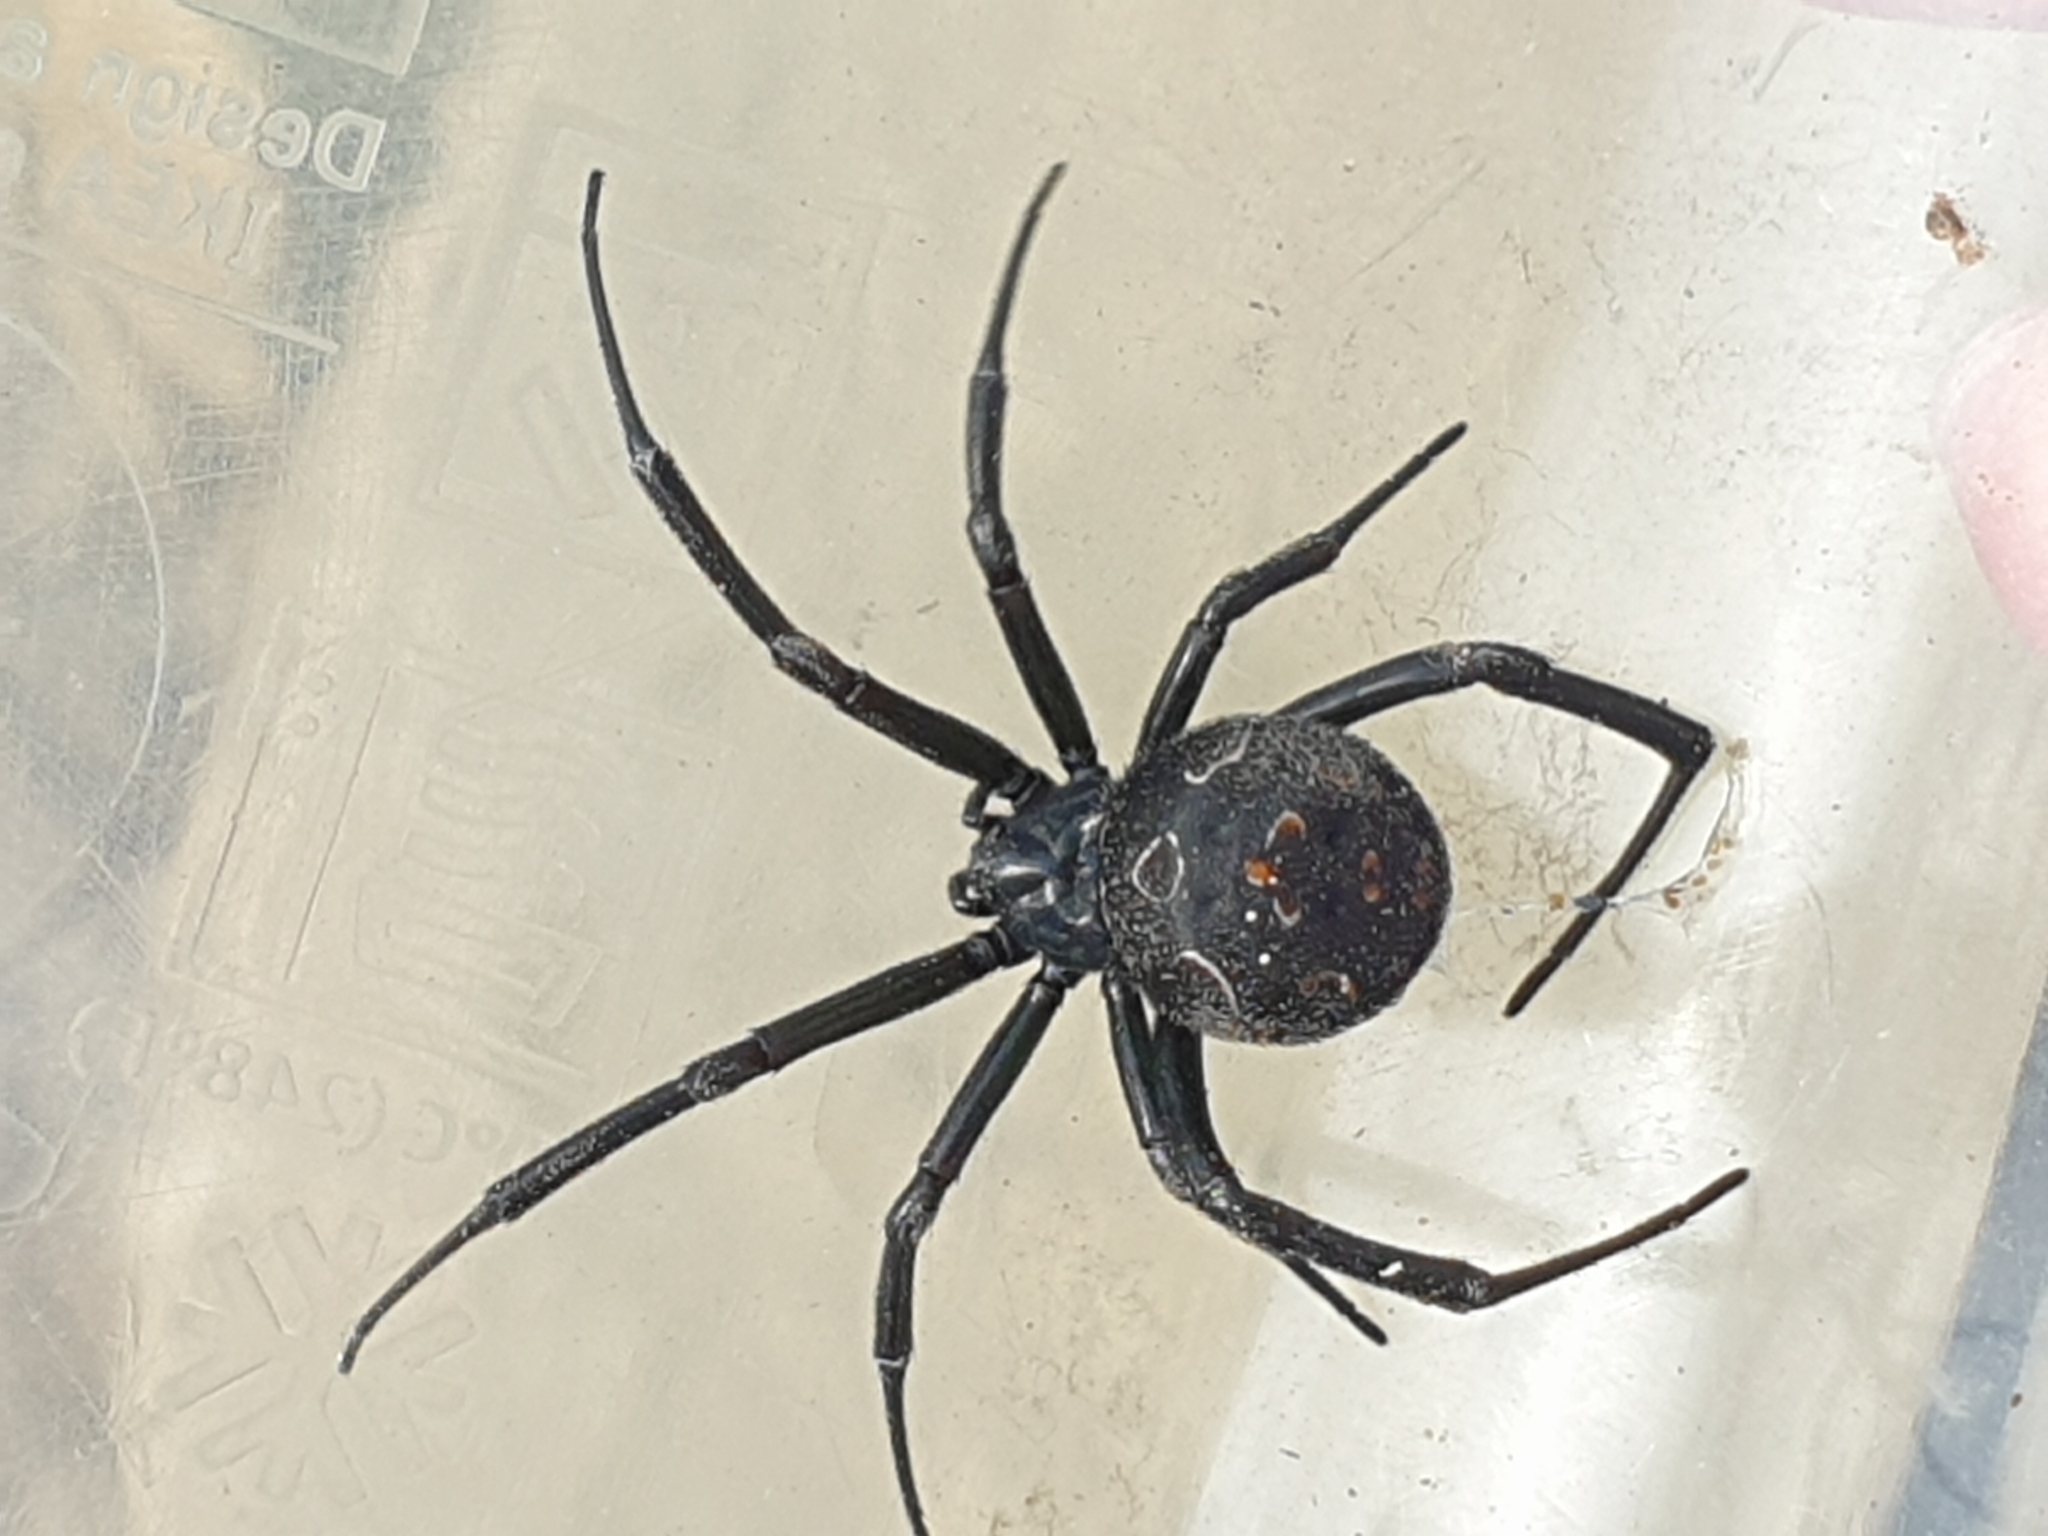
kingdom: Animalia
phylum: Arthropoda
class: Arachnida
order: Araneae
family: Theridiidae
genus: Latrodectus
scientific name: Latrodectus tredecimguttatus
